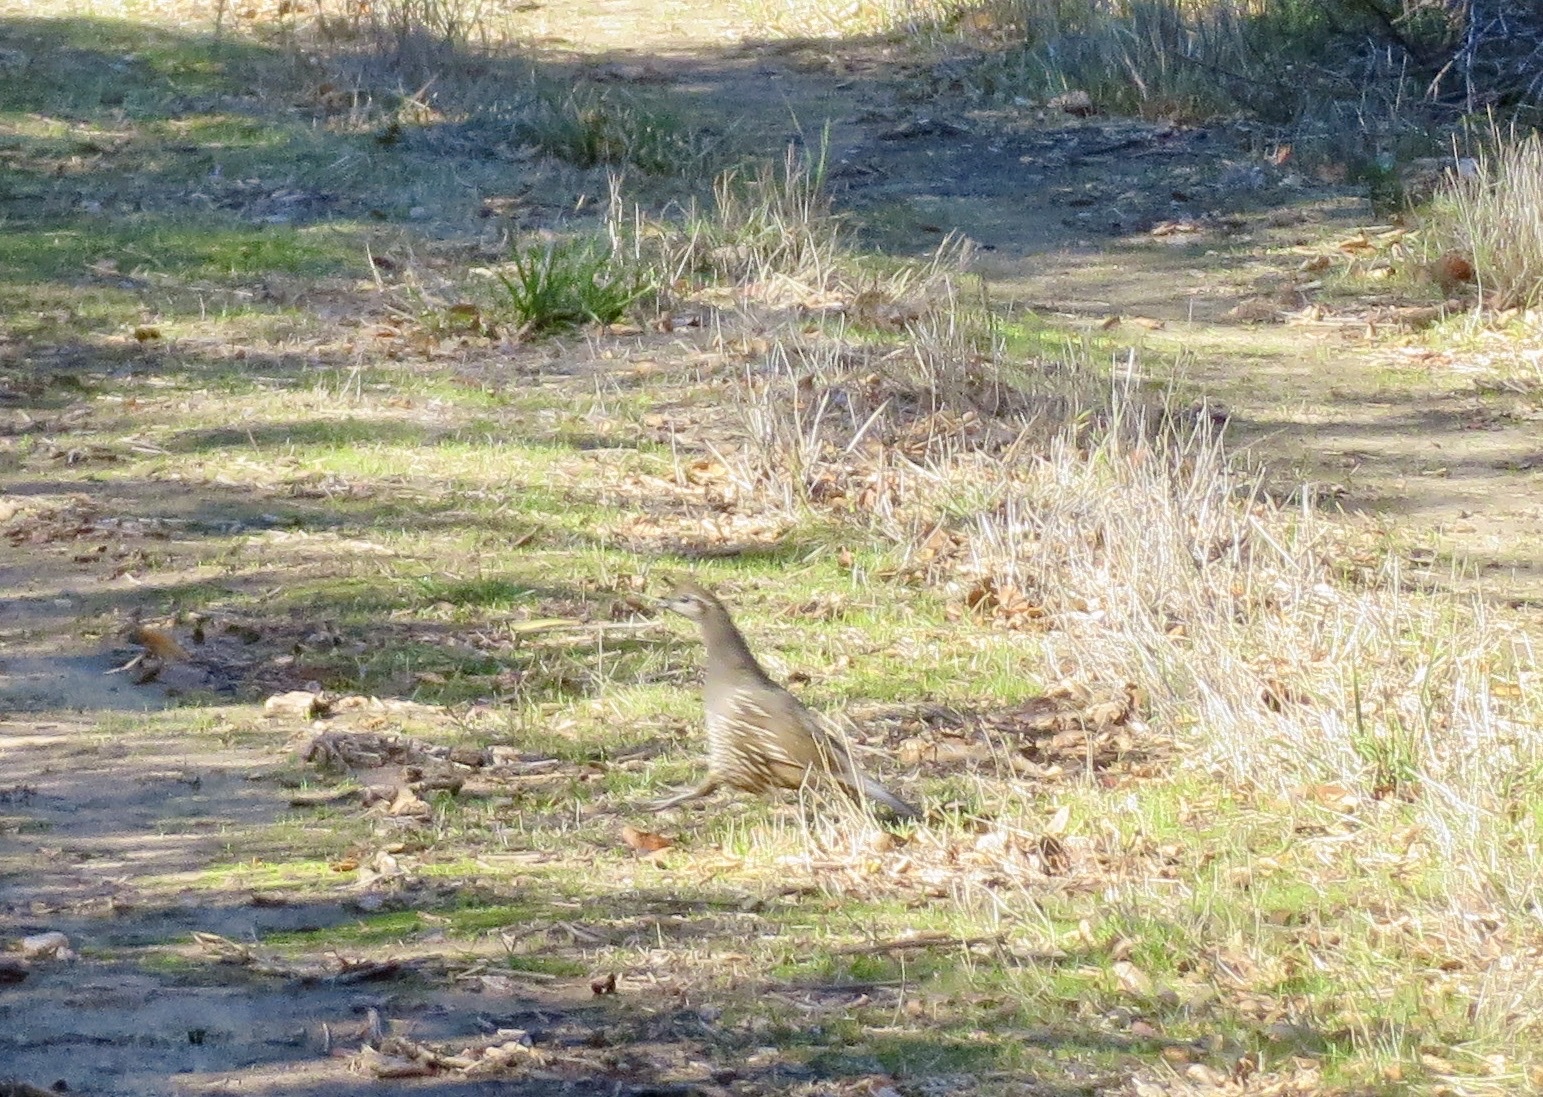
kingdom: Animalia
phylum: Chordata
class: Aves
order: Galliformes
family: Odontophoridae
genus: Callipepla
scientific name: Callipepla californica
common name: California quail
